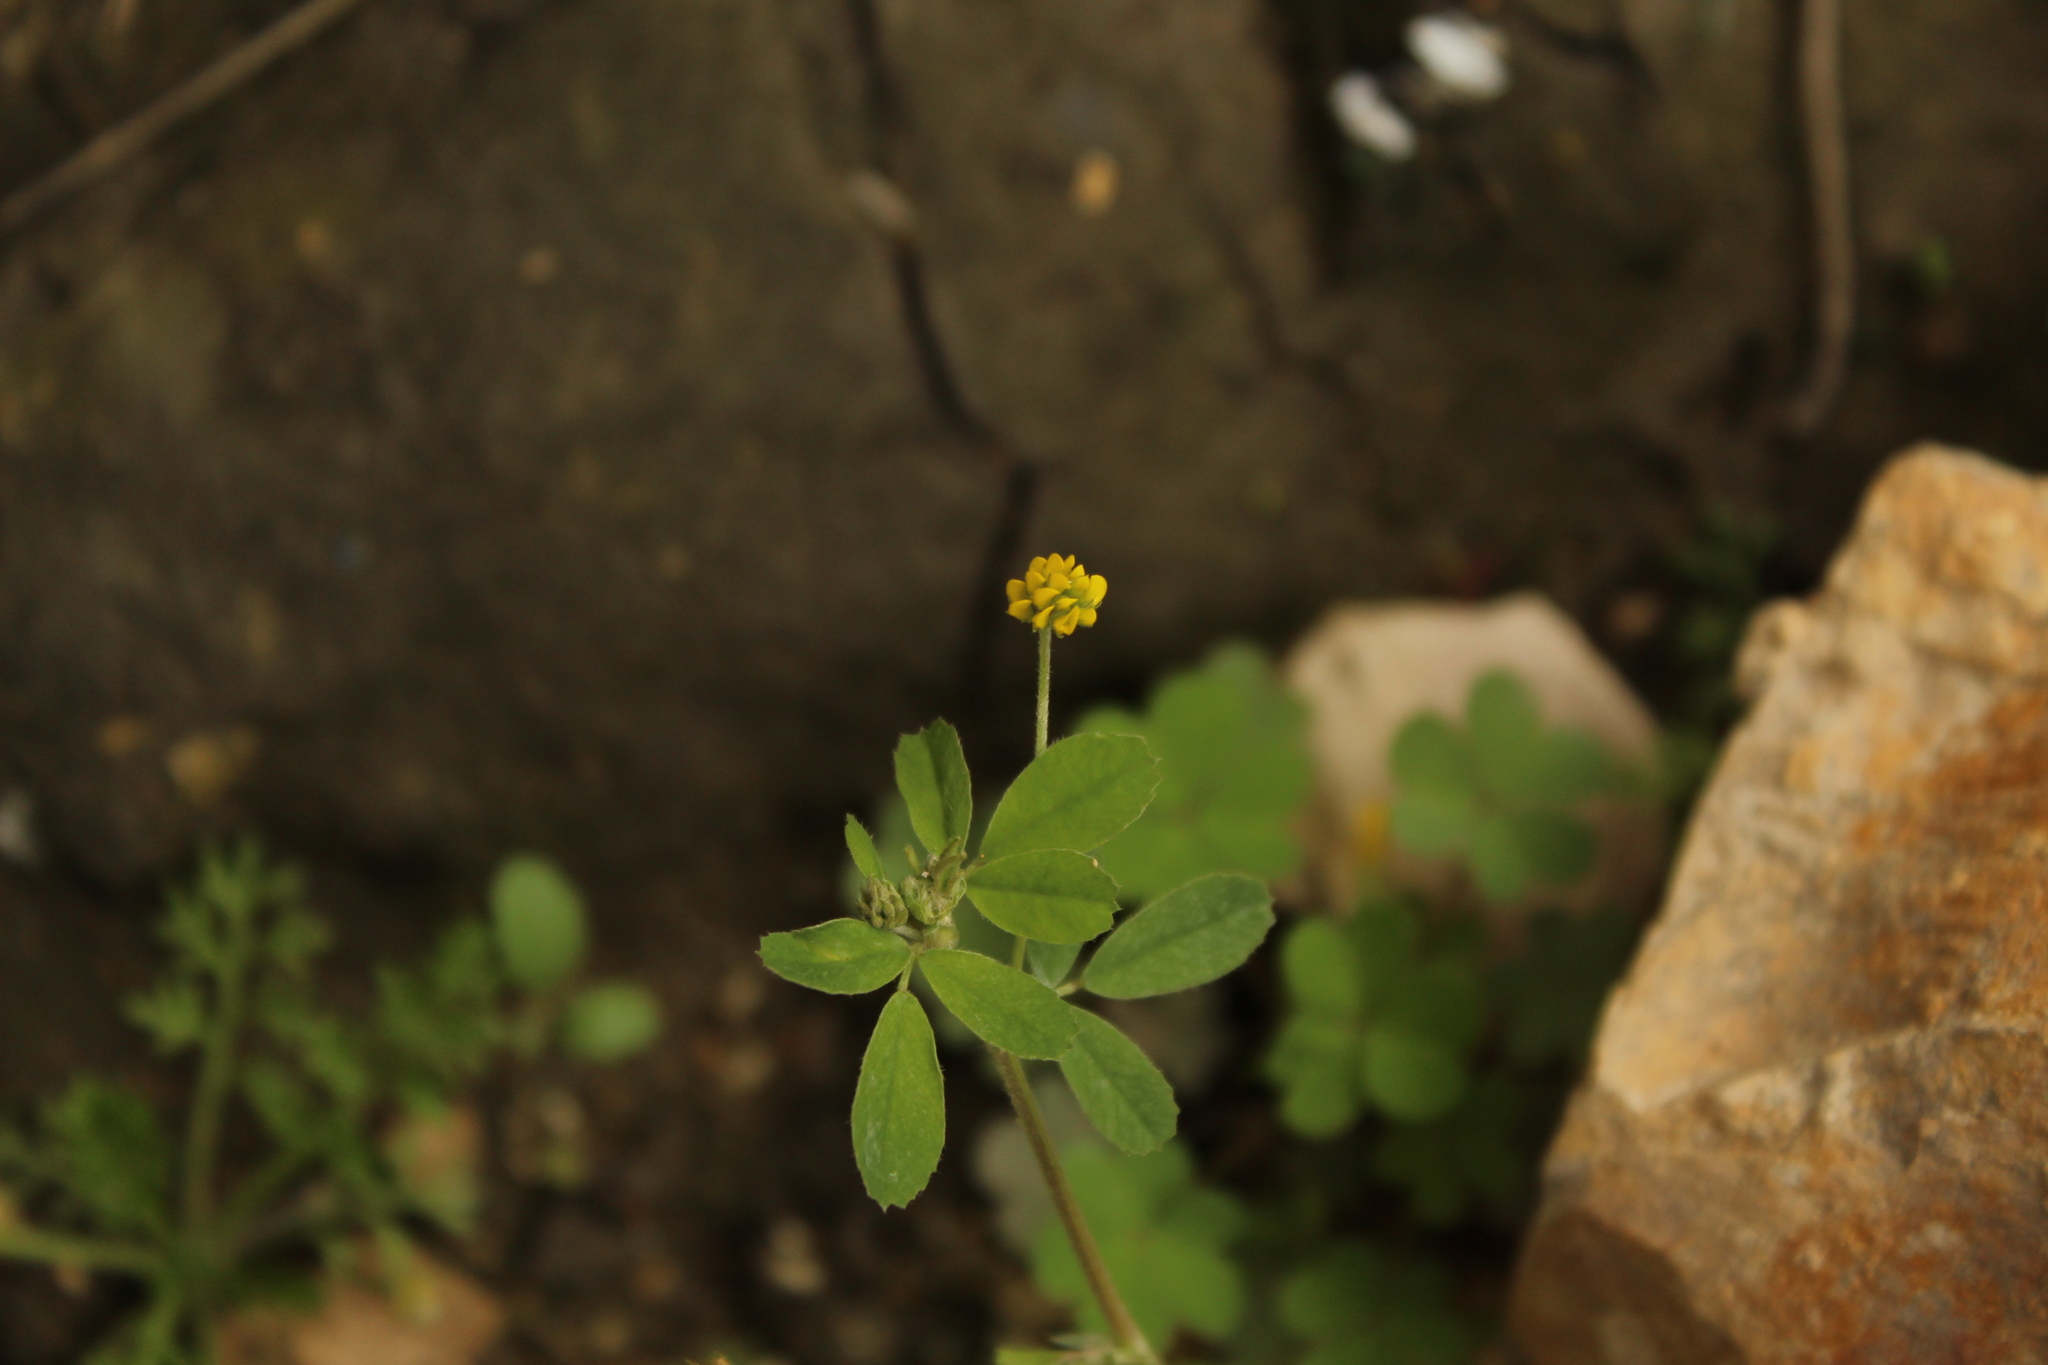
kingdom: Plantae
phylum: Tracheophyta
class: Magnoliopsida
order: Fabales
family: Fabaceae
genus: Medicago
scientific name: Medicago lupulina
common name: Black medick
